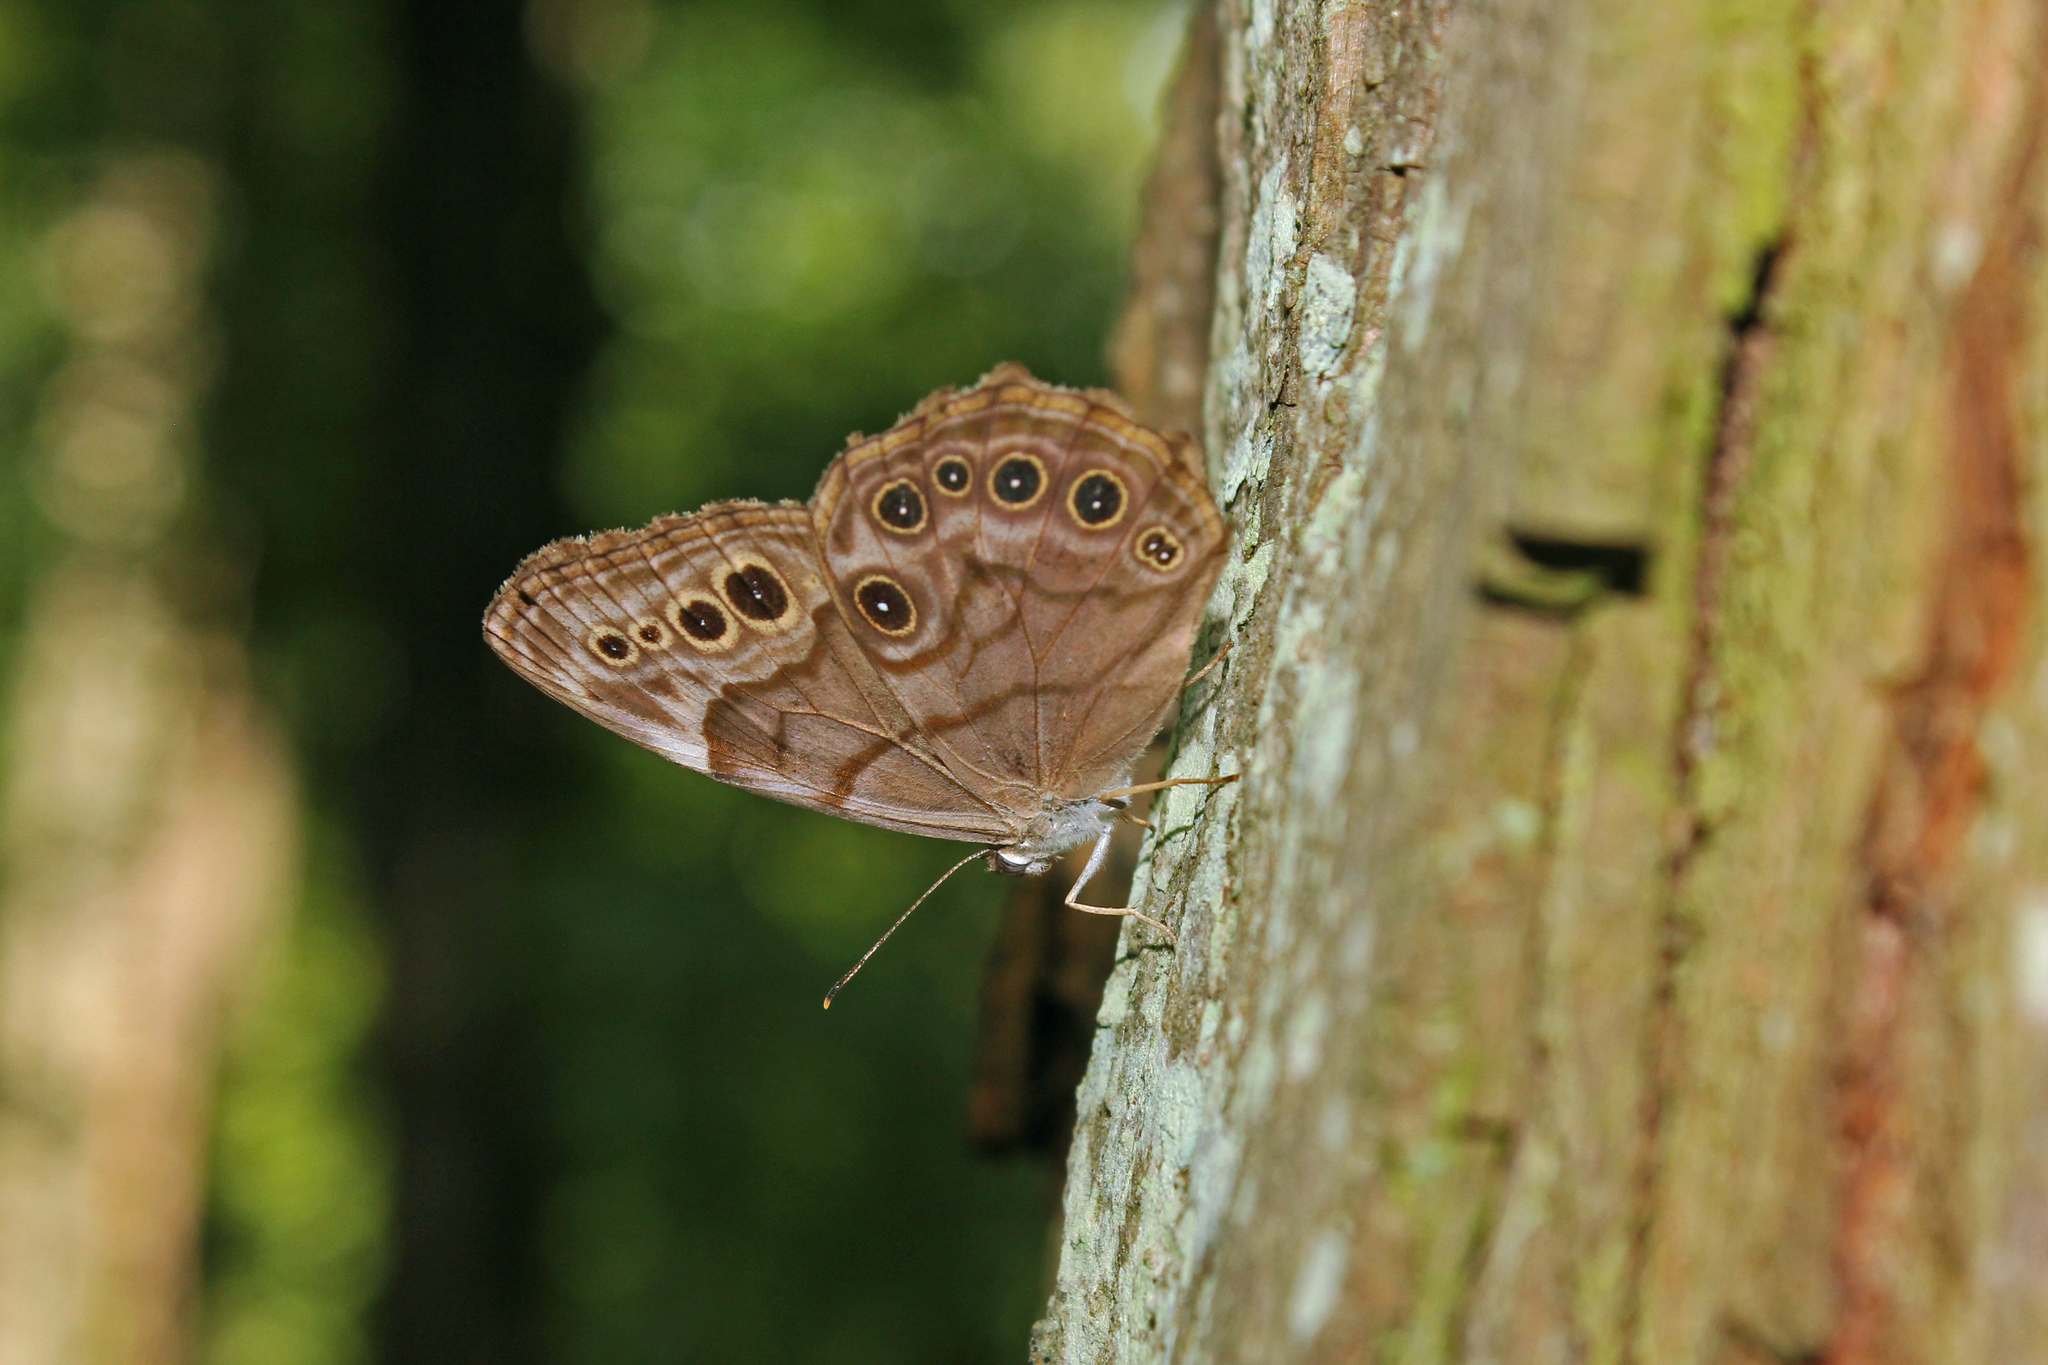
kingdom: Animalia
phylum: Arthropoda
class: Insecta
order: Lepidoptera
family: Nymphalidae
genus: Lethe
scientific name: Lethe anthedon
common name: Northern pearly-eye
